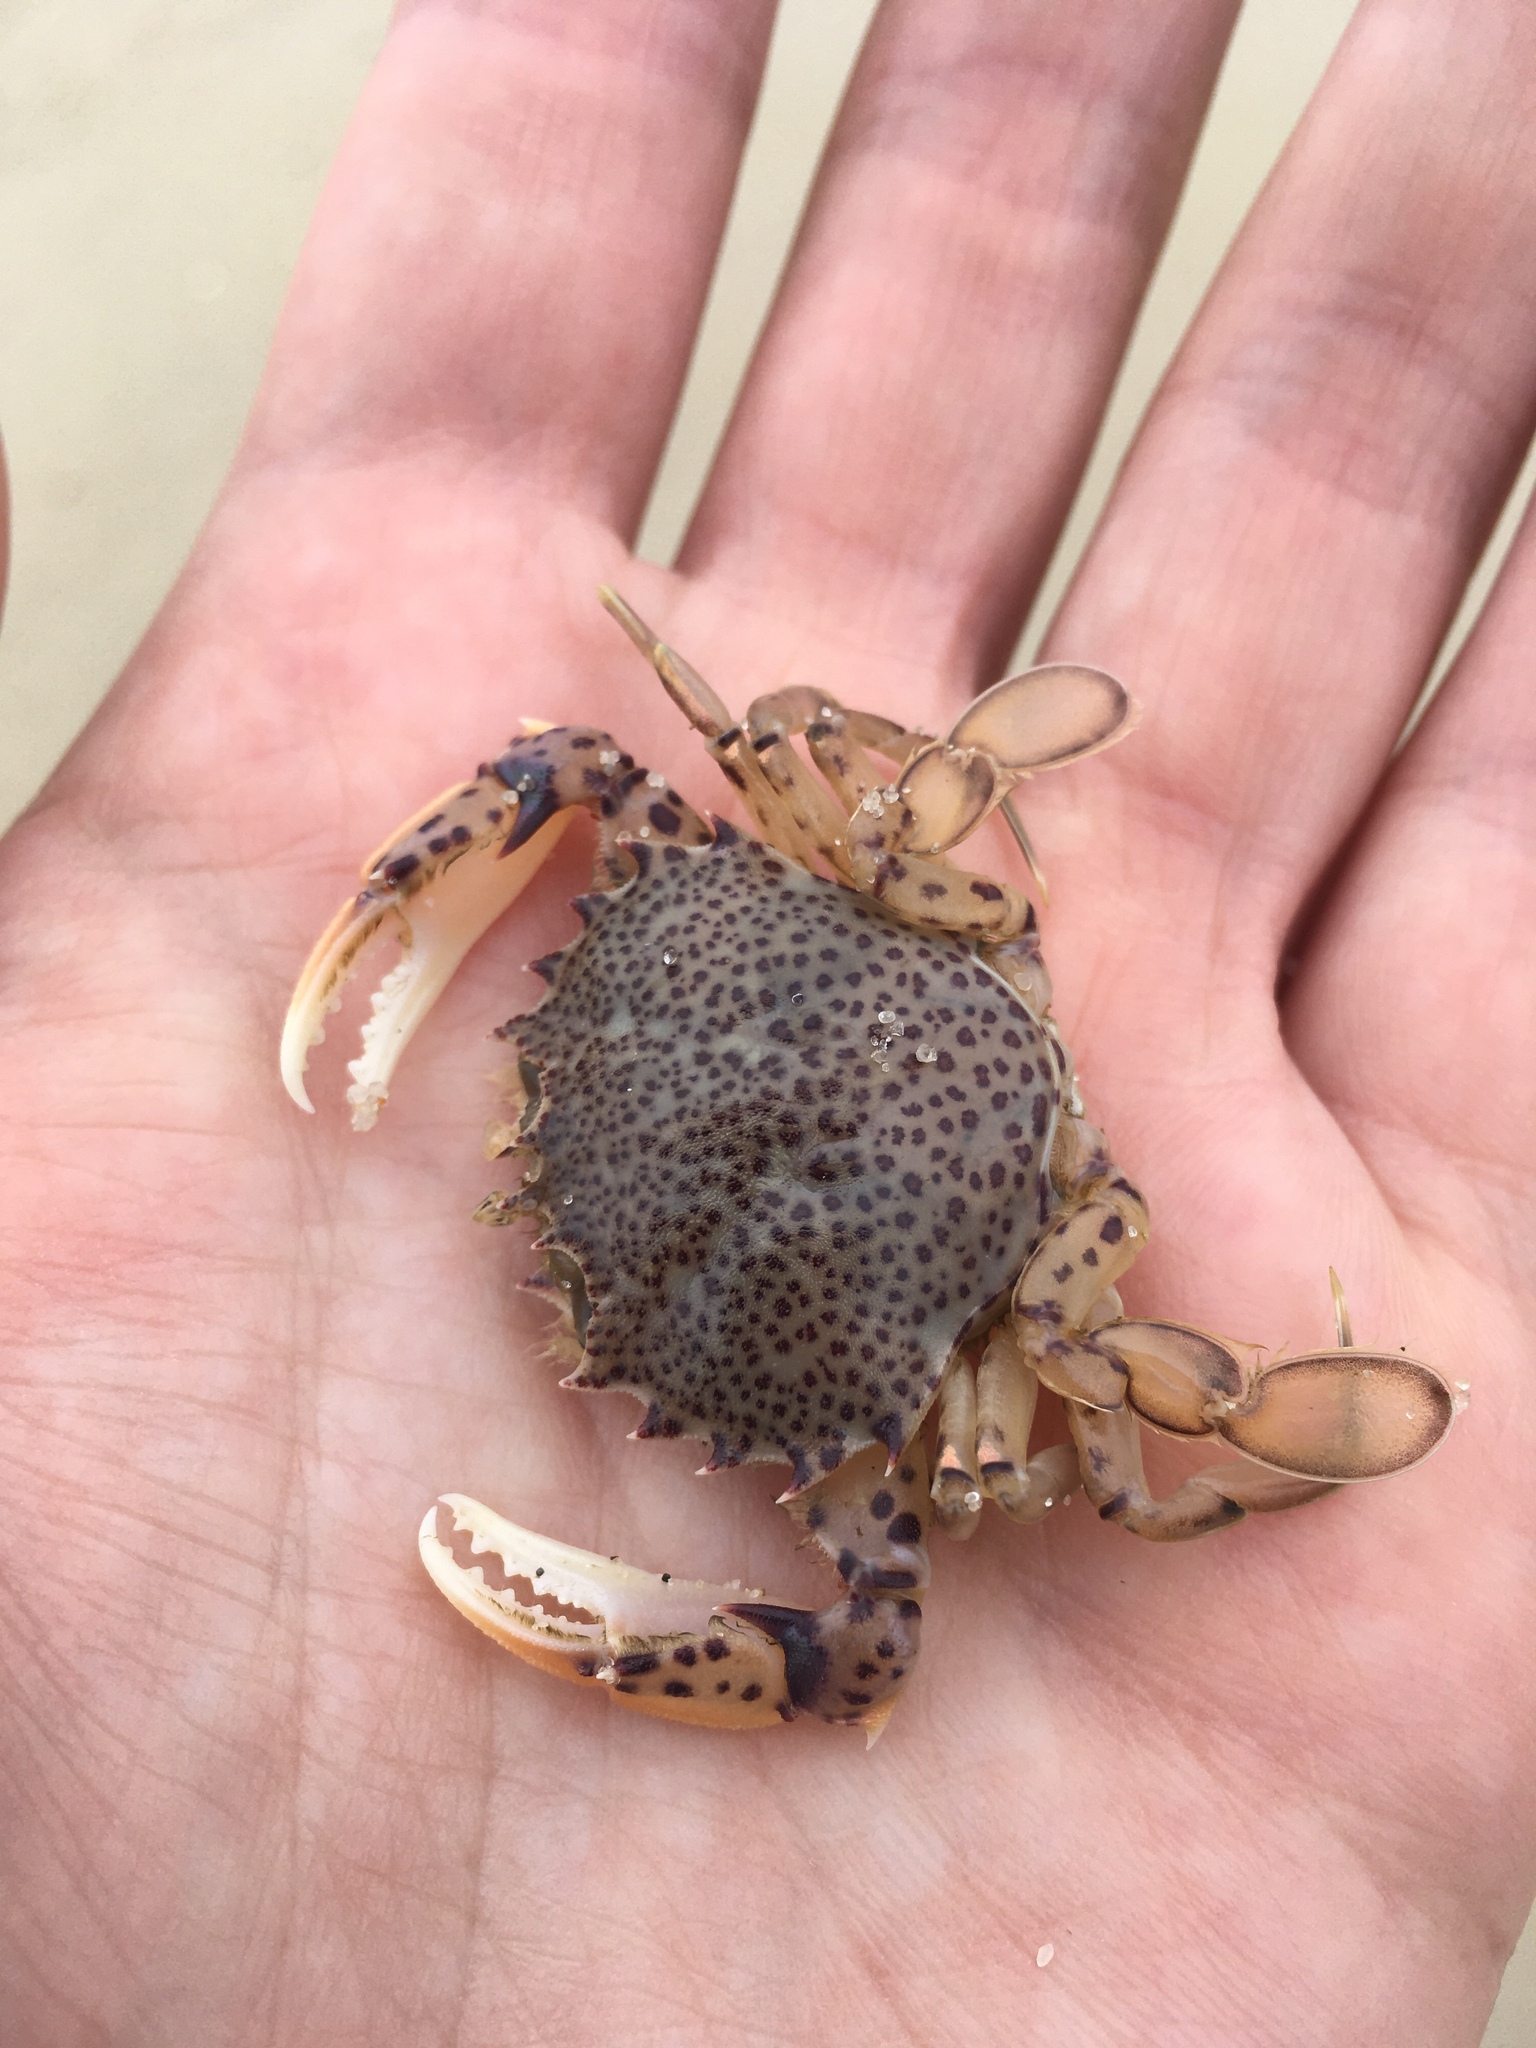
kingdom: Animalia
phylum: Arthropoda
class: Malacostraca
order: Decapoda
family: Ovalipidae
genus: Ovalipes
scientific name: Ovalipes ocellatus
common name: Lady crab
